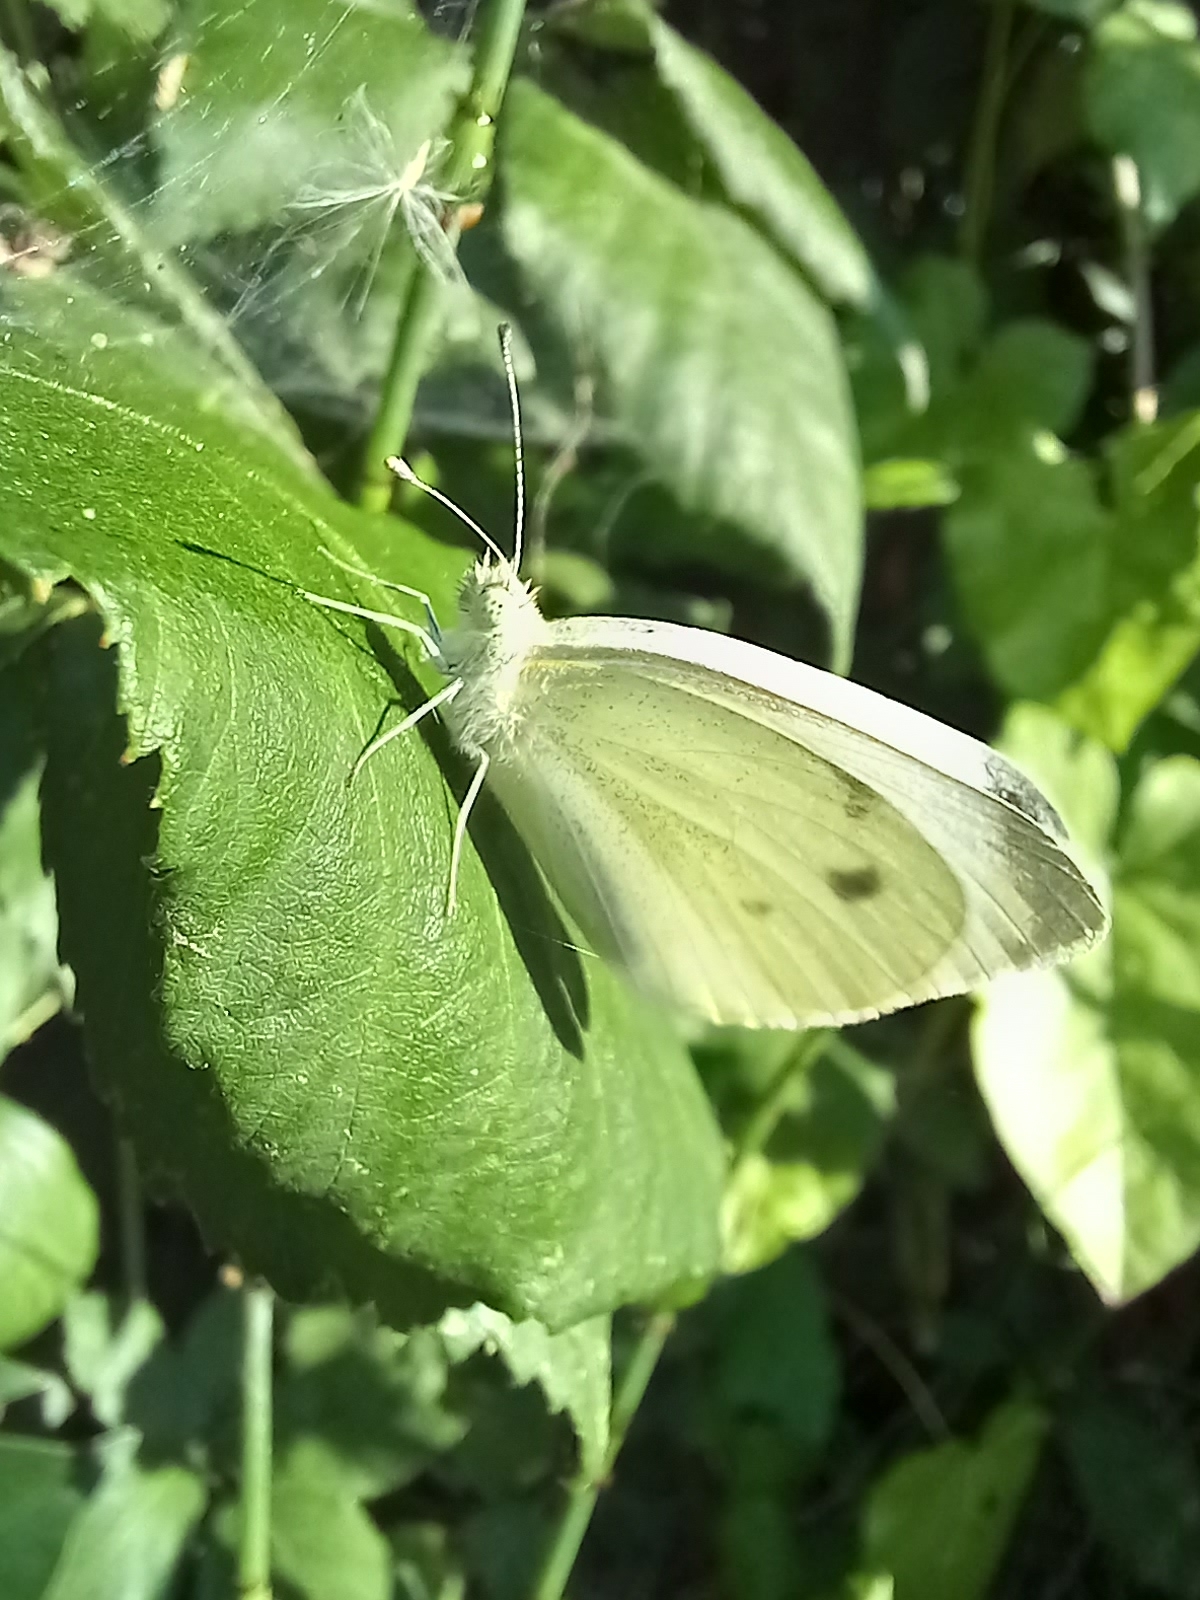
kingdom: Animalia
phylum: Arthropoda
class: Insecta
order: Lepidoptera
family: Pieridae
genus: Pieris
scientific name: Pieris rapae
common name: Small white
